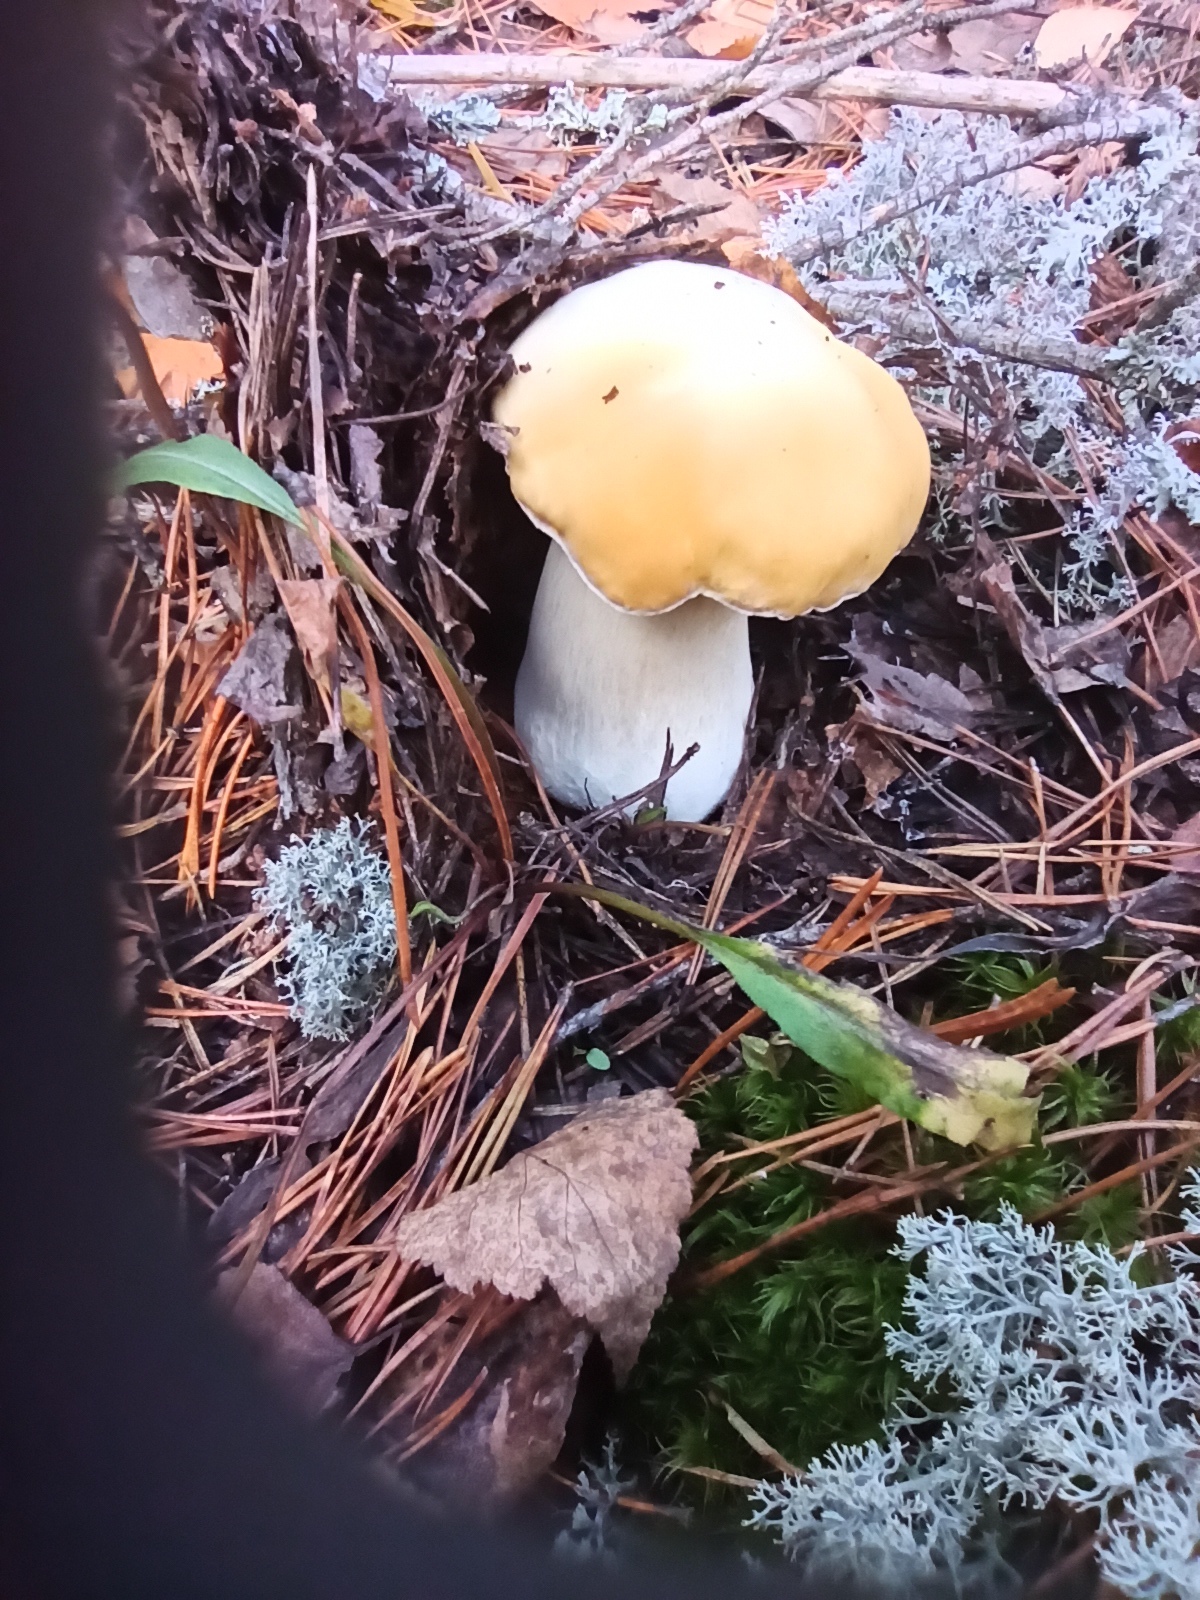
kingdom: Fungi
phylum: Basidiomycota
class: Agaricomycetes
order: Boletales
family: Boletaceae
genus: Boletus
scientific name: Boletus edulis
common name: Cep
